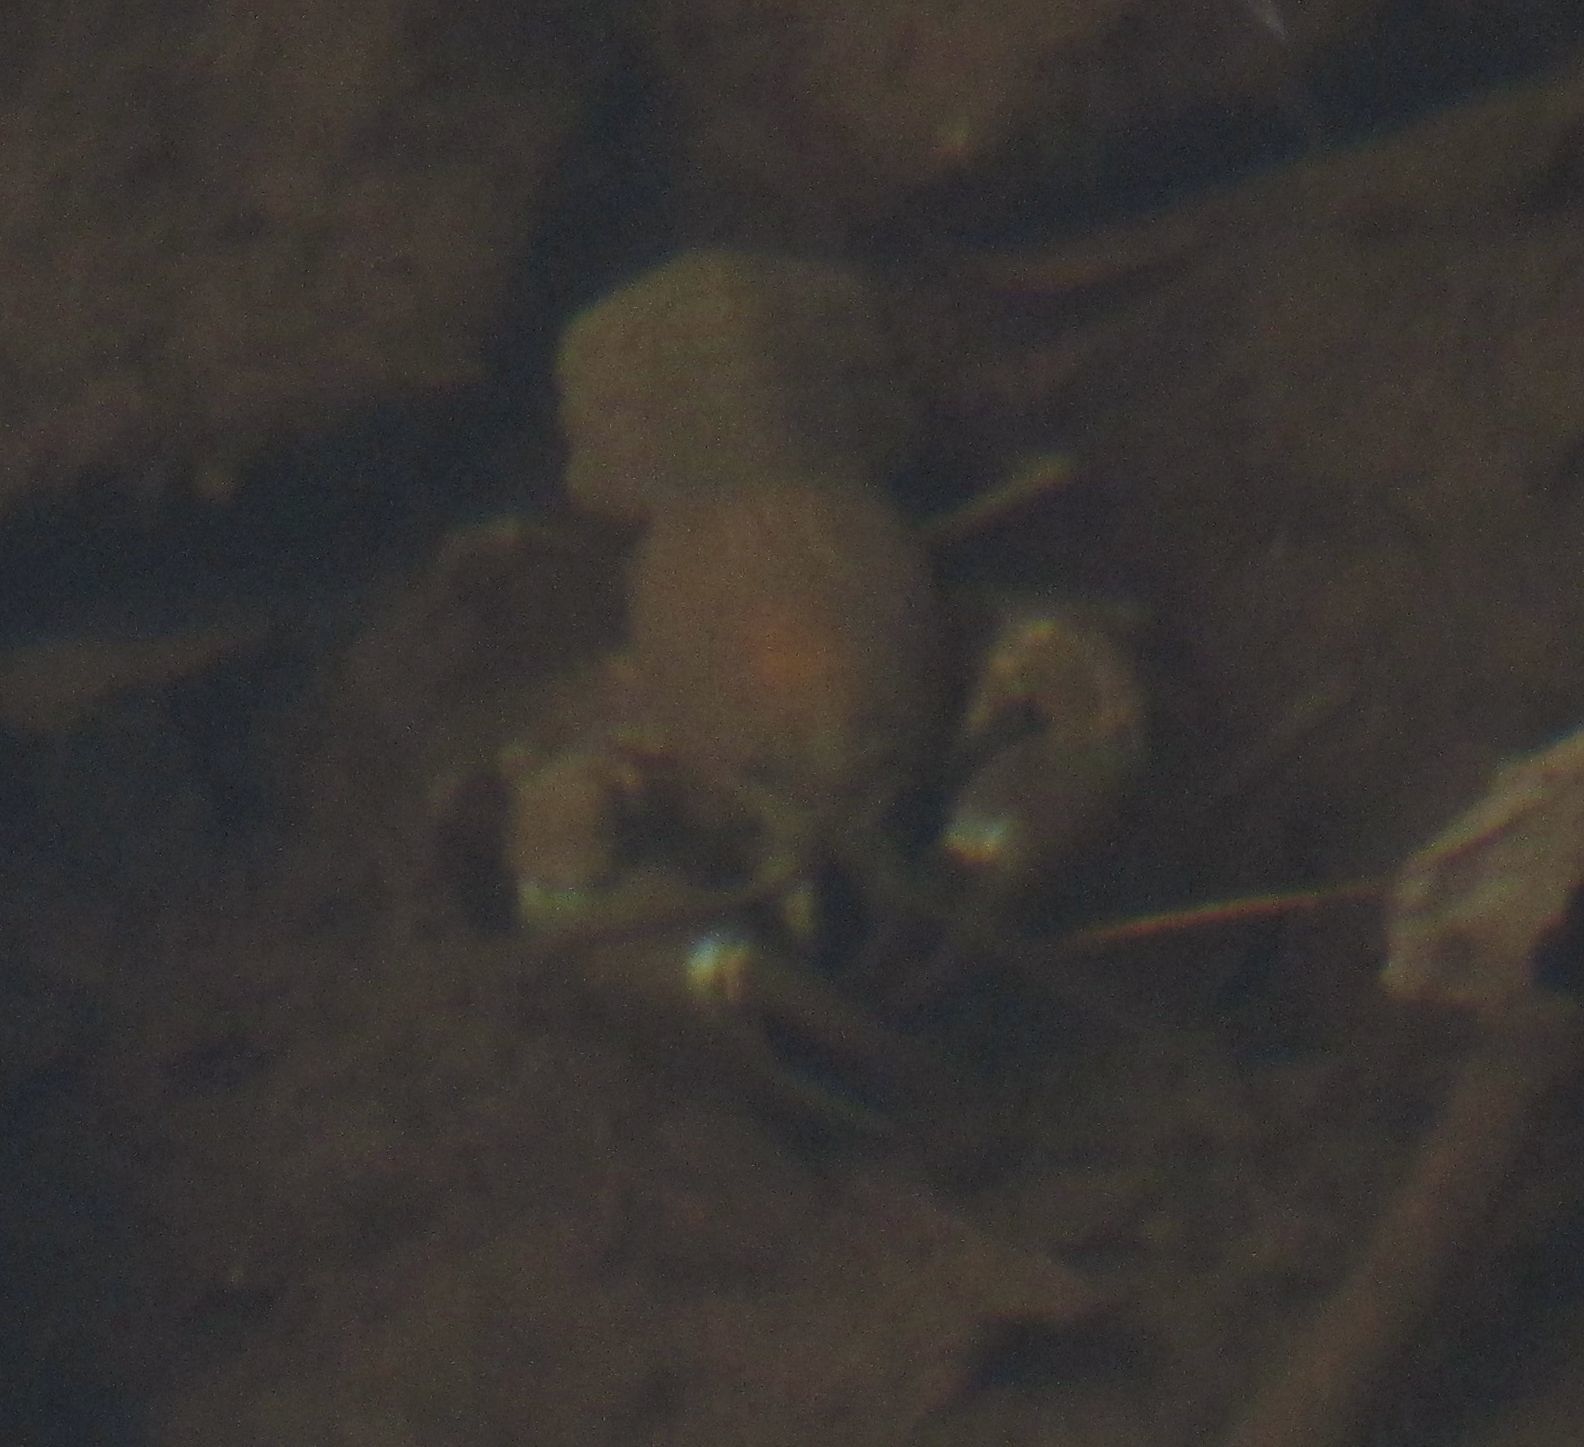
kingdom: Animalia
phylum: Arthropoda
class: Malacostraca
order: Decapoda
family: Astacidae
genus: Pacifastacus
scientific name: Pacifastacus leniusculus
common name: Signal crayfish
